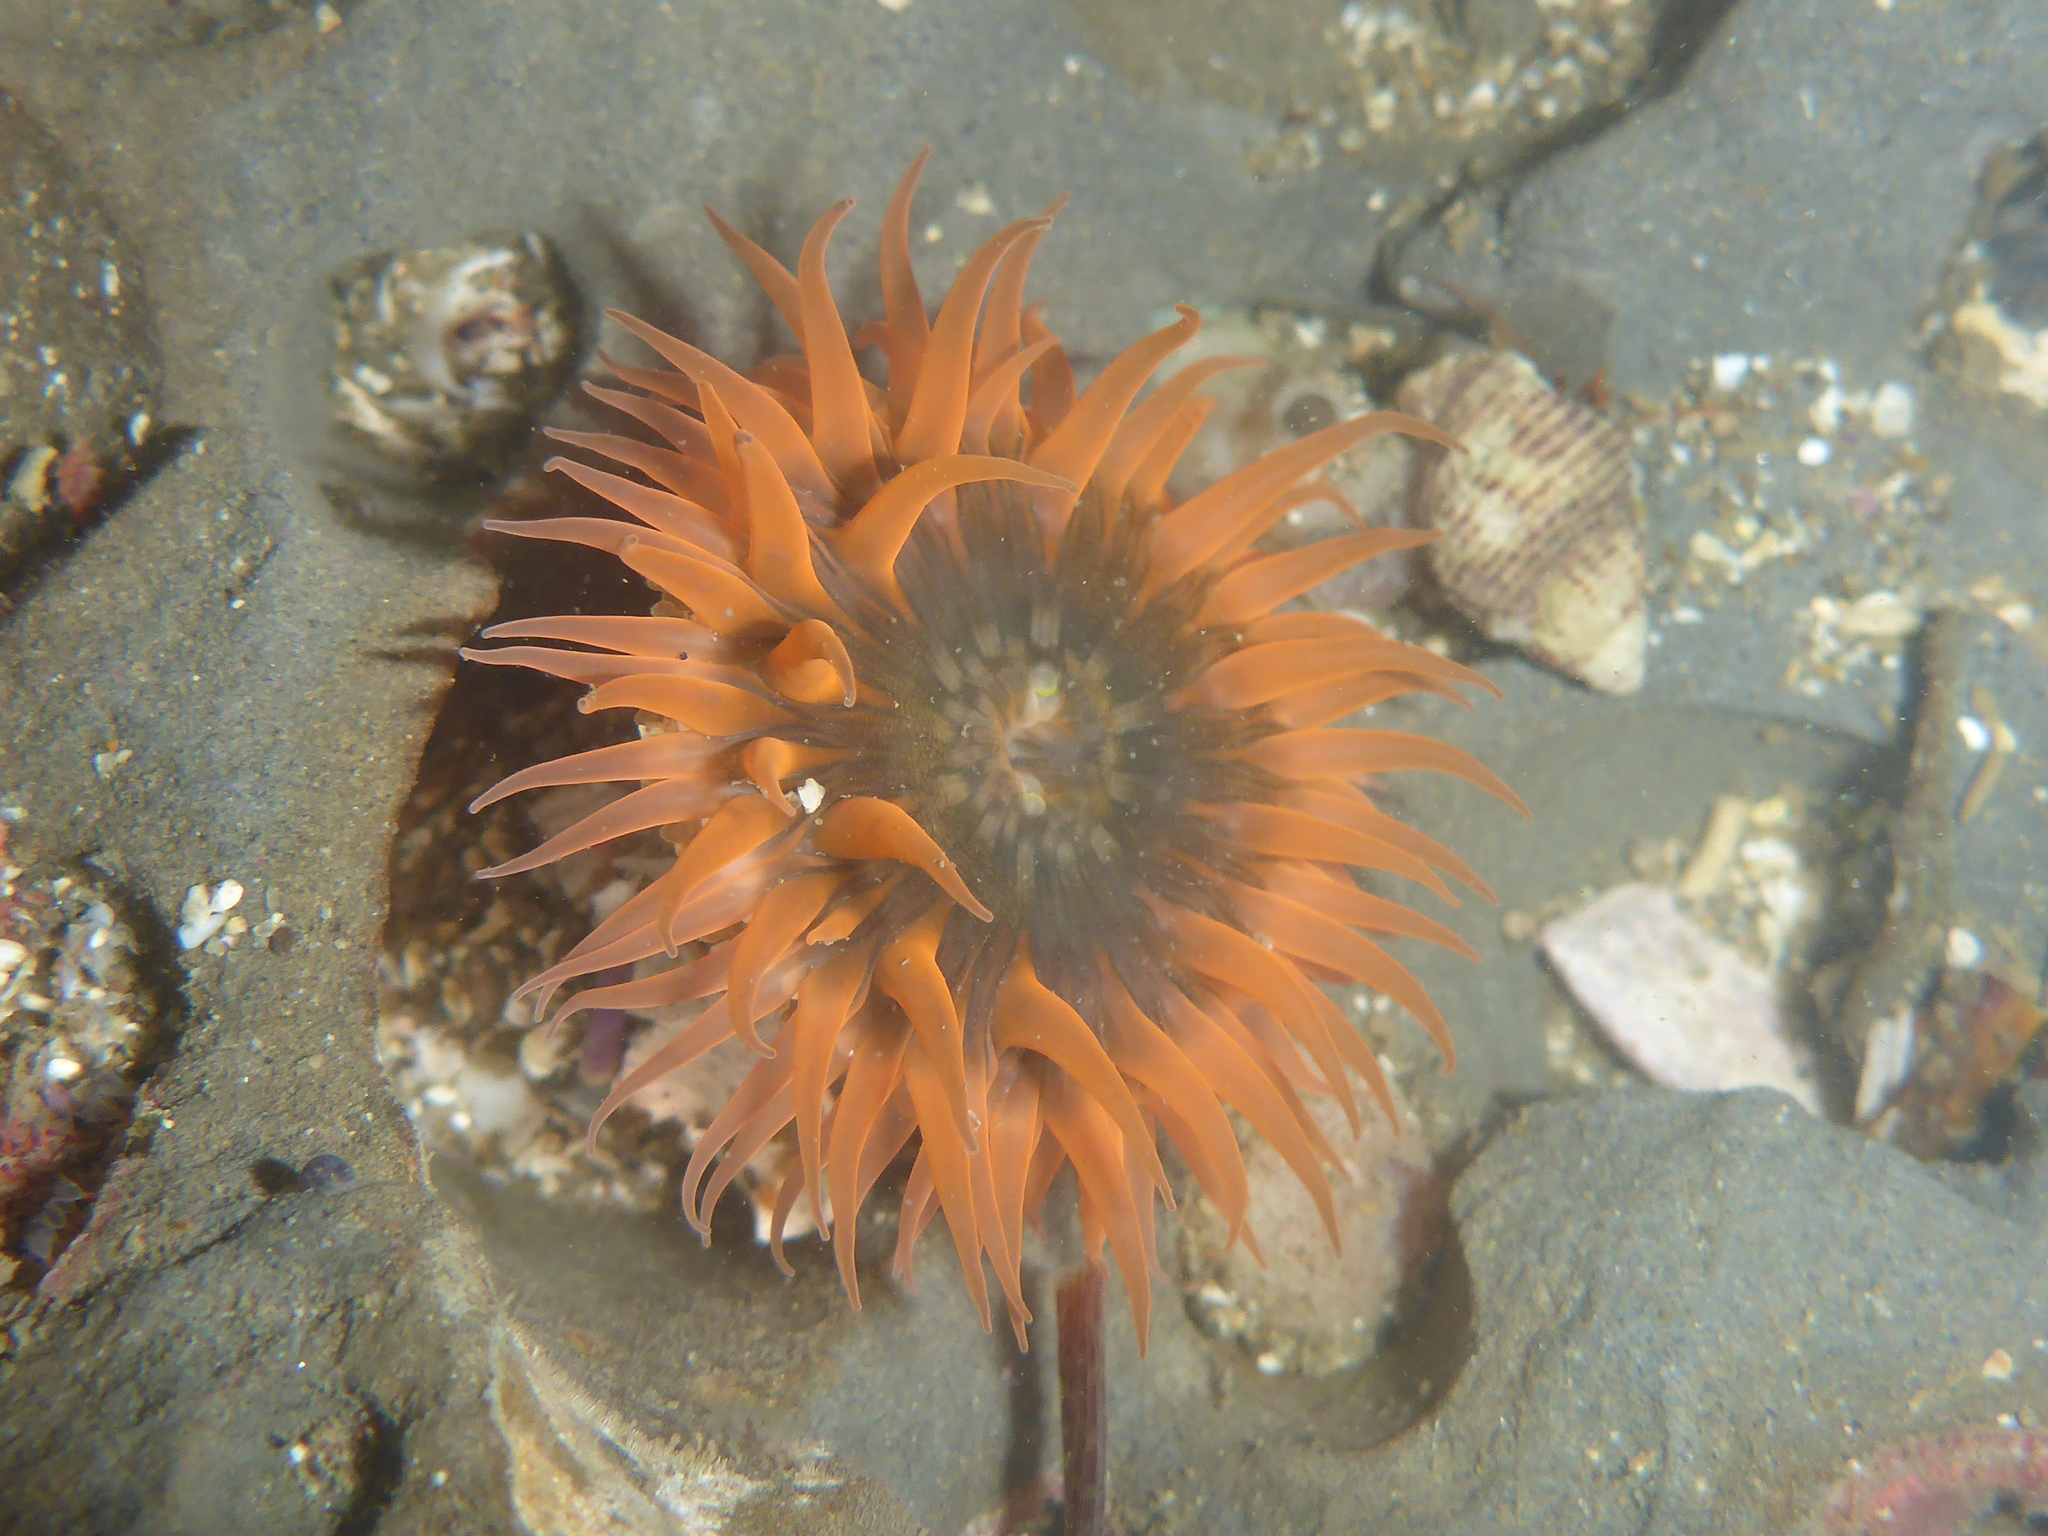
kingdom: Animalia
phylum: Cnidaria
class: Anthozoa
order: Actiniaria
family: Actiniidae
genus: Anthopleura
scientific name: Anthopleura artemisia
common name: Buried sea anemone
